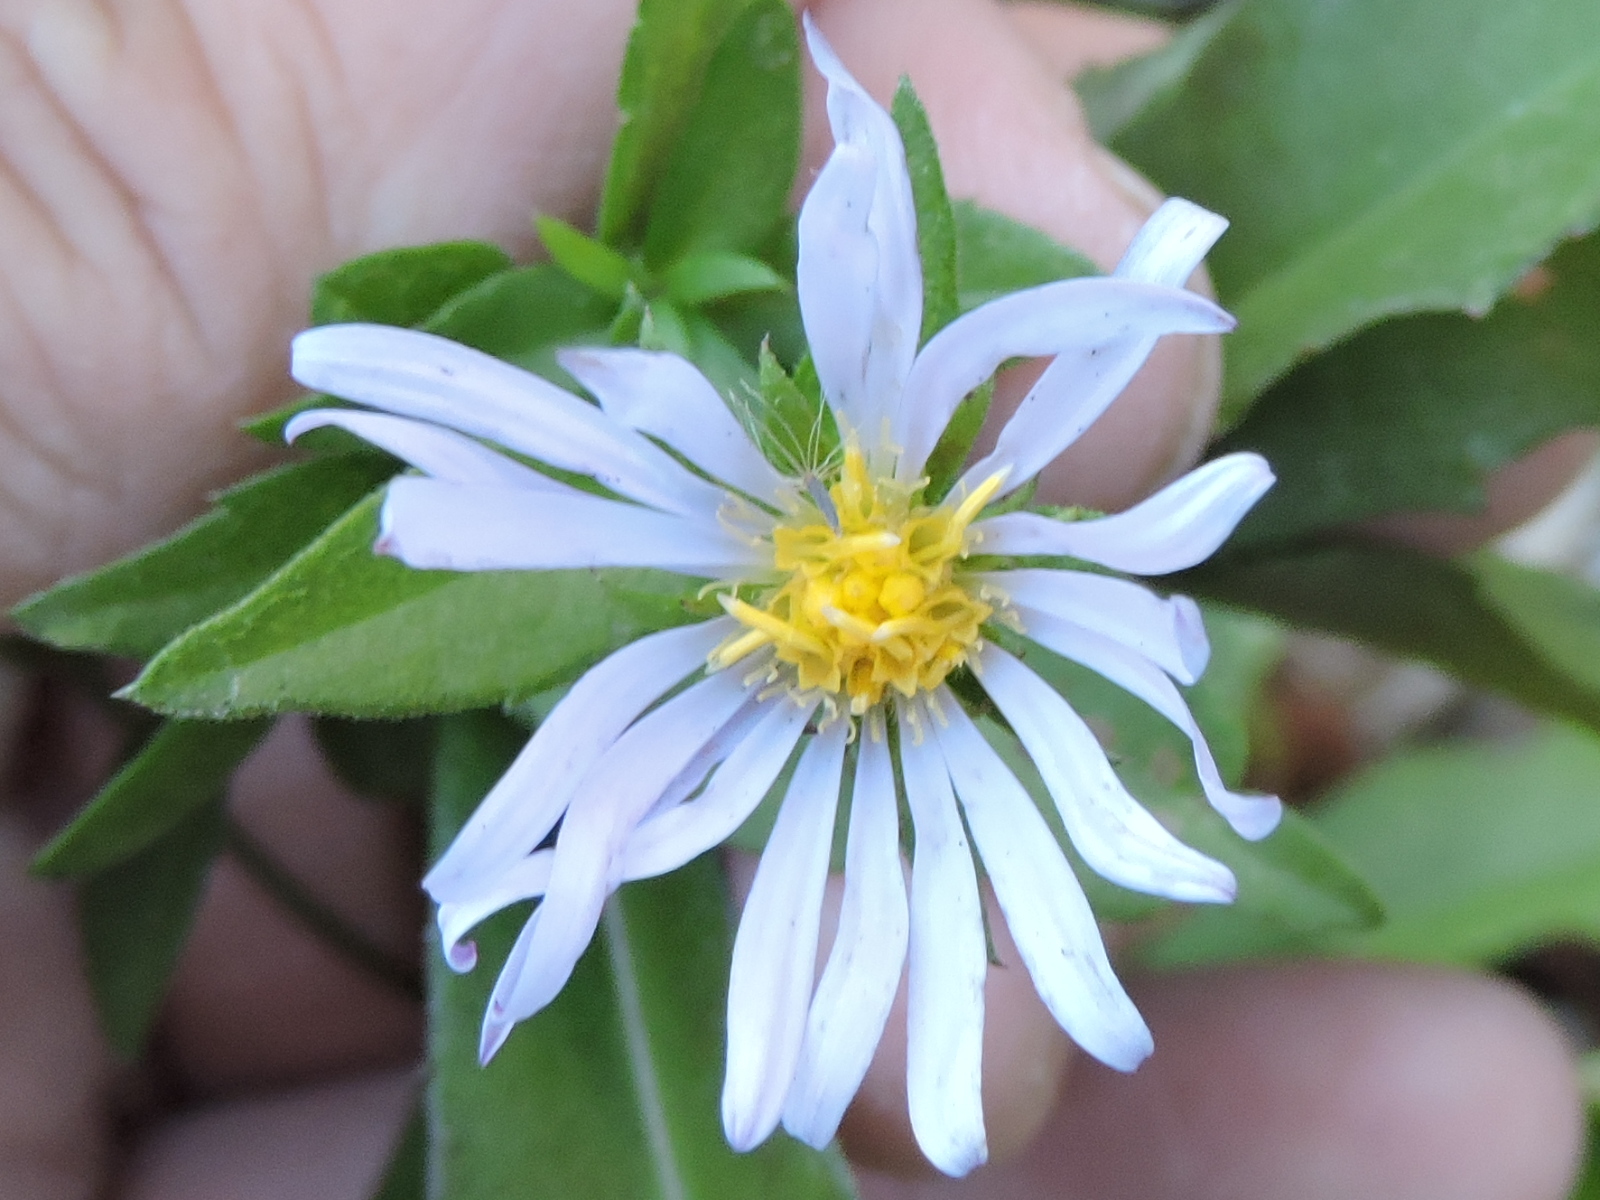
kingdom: Plantae
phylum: Tracheophyta
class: Magnoliopsida
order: Asterales
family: Asteraceae
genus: Symphyotrichum
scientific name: Symphyotrichum puniceum
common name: Bog aster
